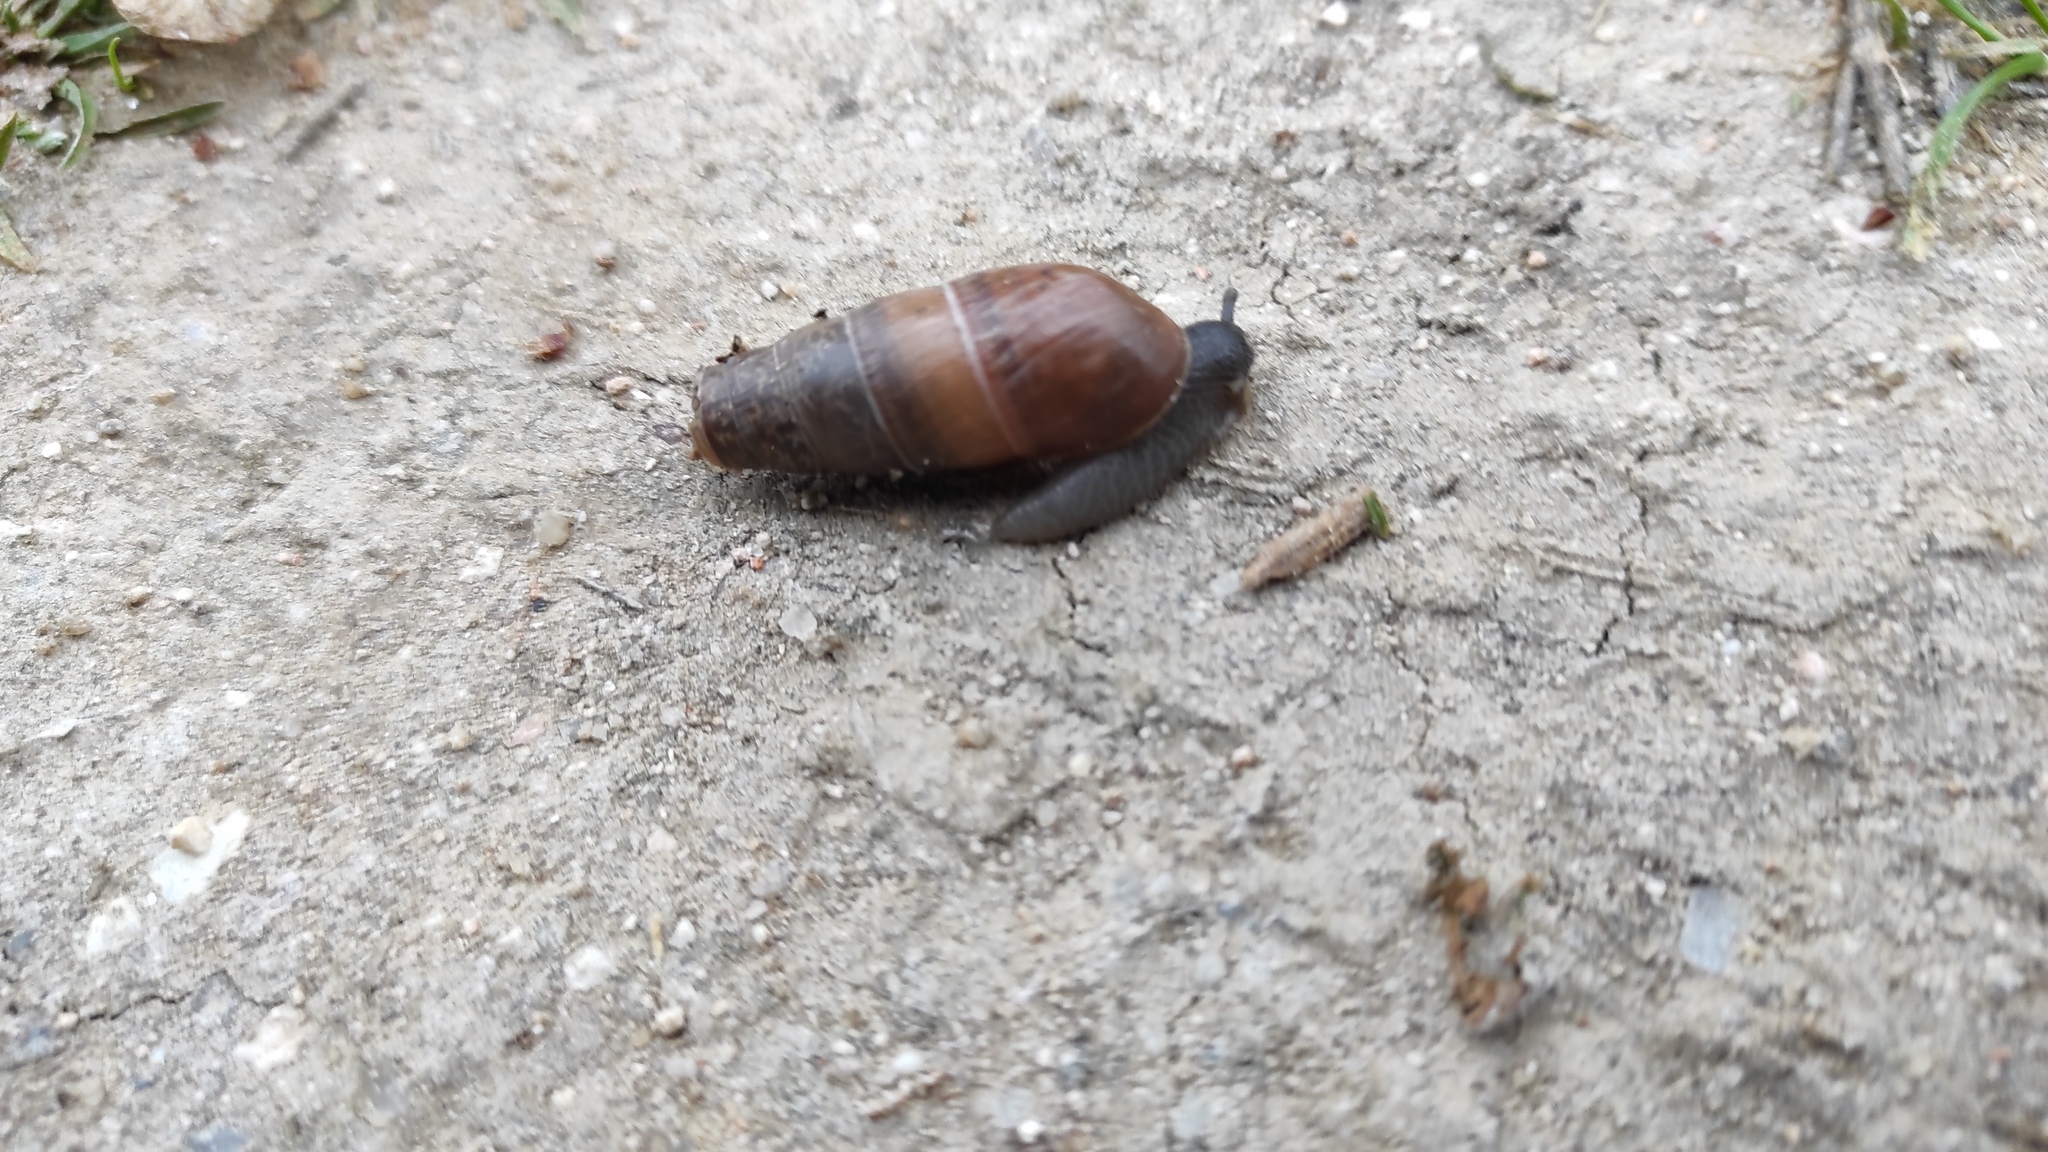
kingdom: Animalia
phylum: Mollusca
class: Gastropoda
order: Stylommatophora
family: Achatinidae
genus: Rumina
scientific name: Rumina decollata
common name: Decollate snail
